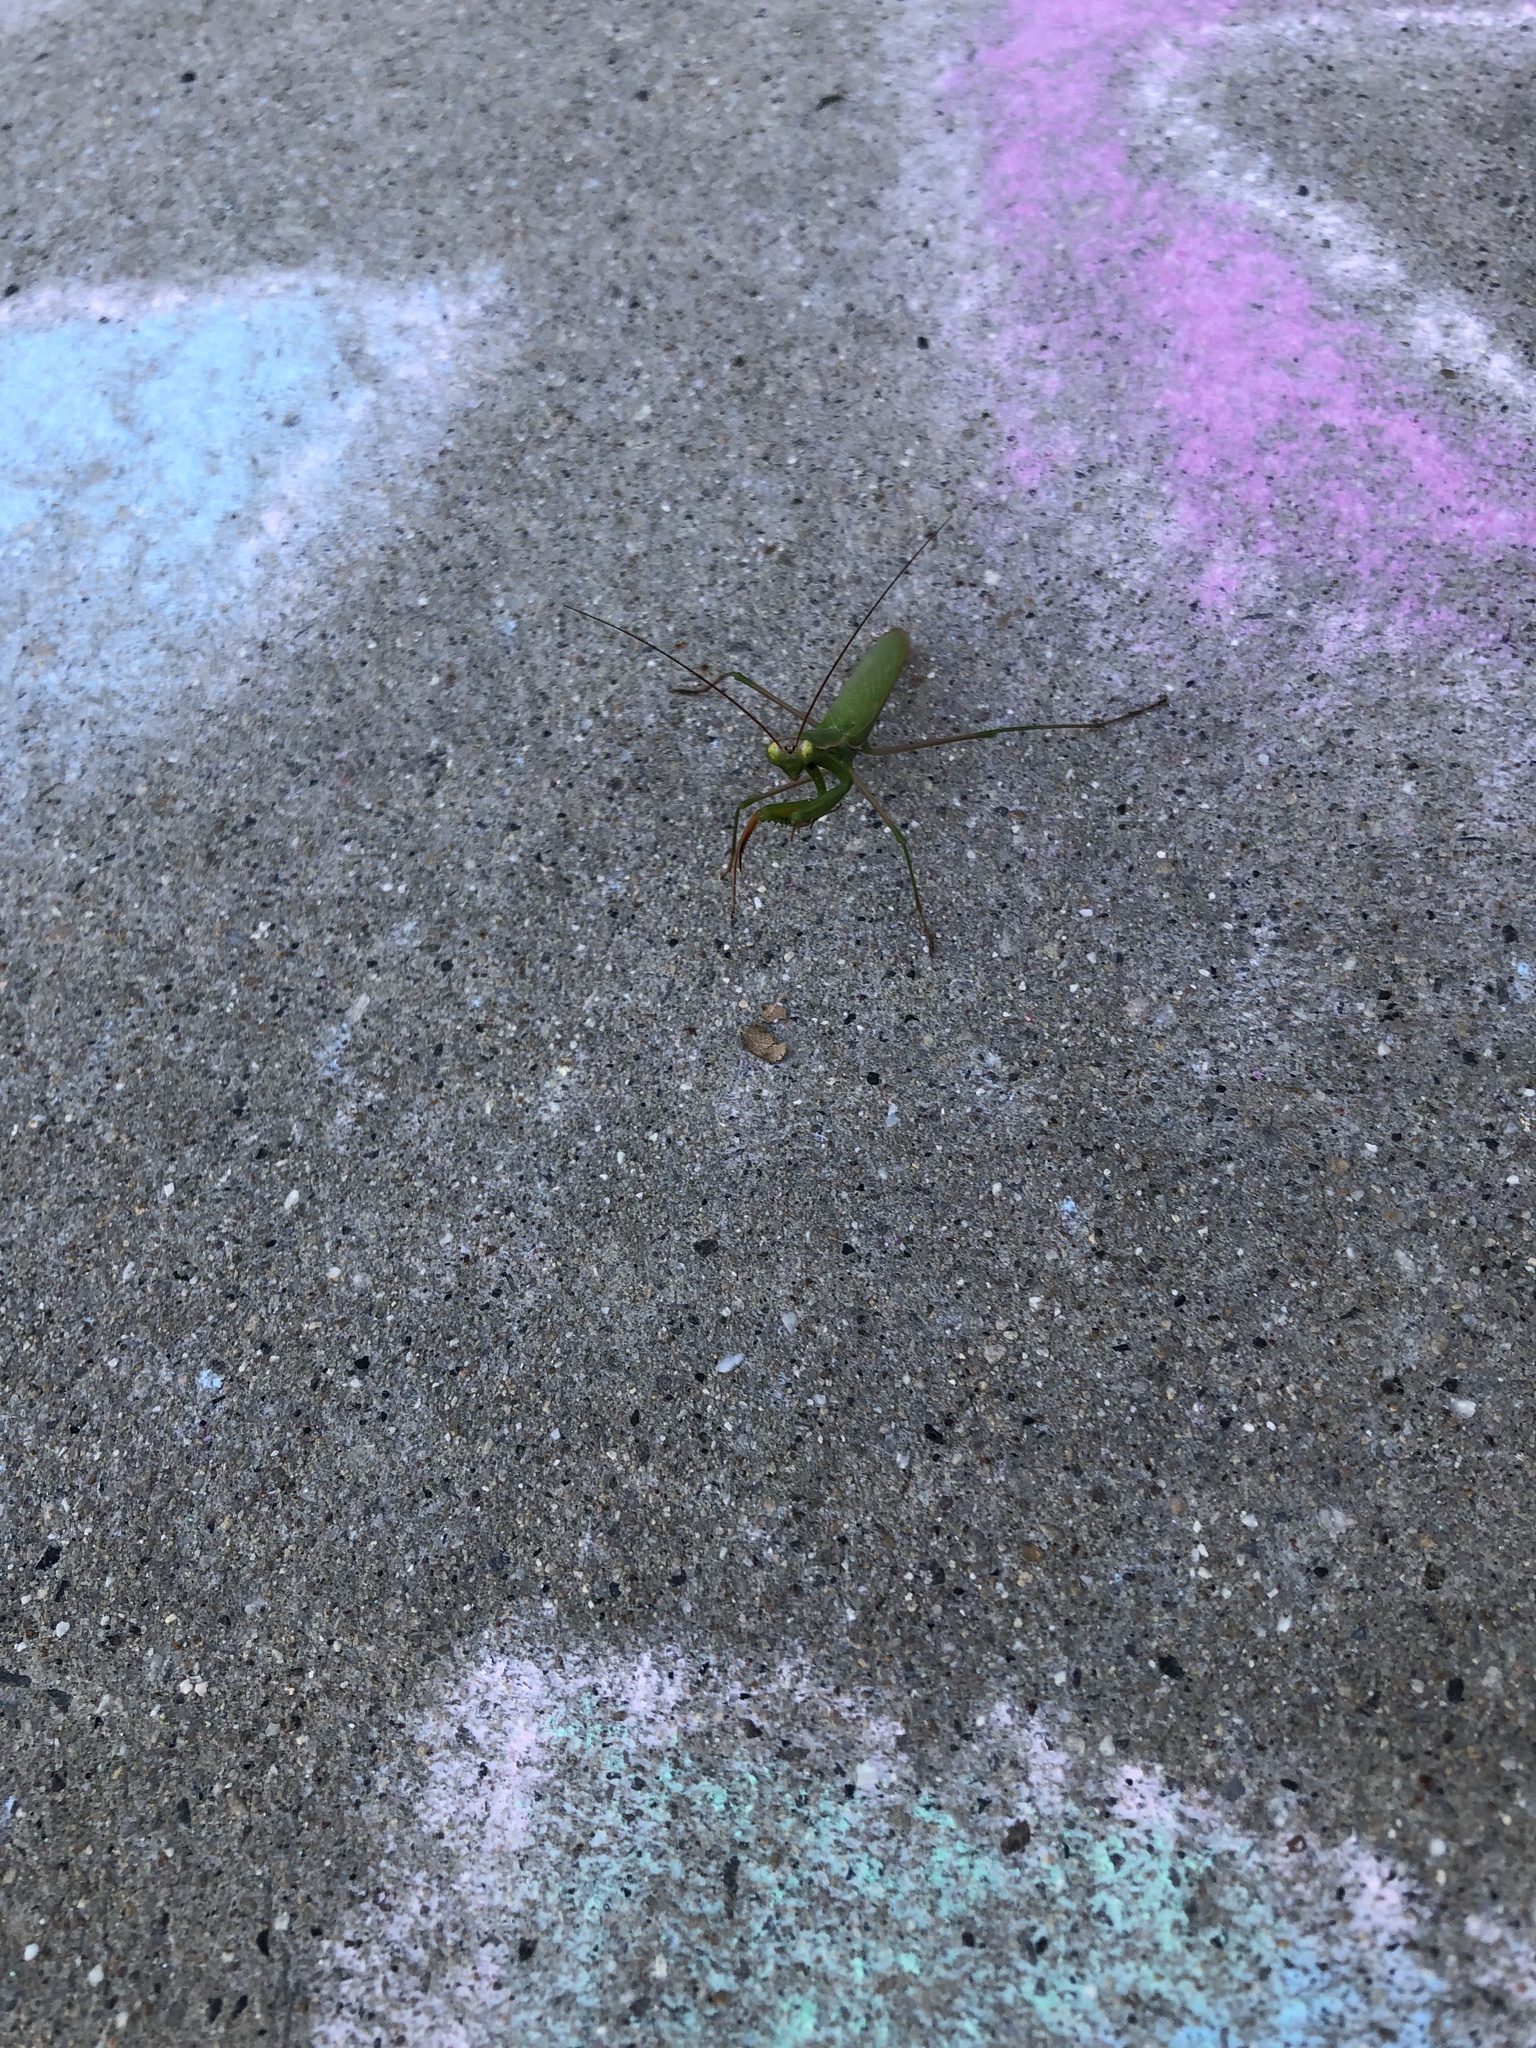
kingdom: Animalia
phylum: Arthropoda
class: Insecta
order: Mantodea
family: Mantidae
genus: Mantis
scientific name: Mantis religiosa
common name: Praying mantis
